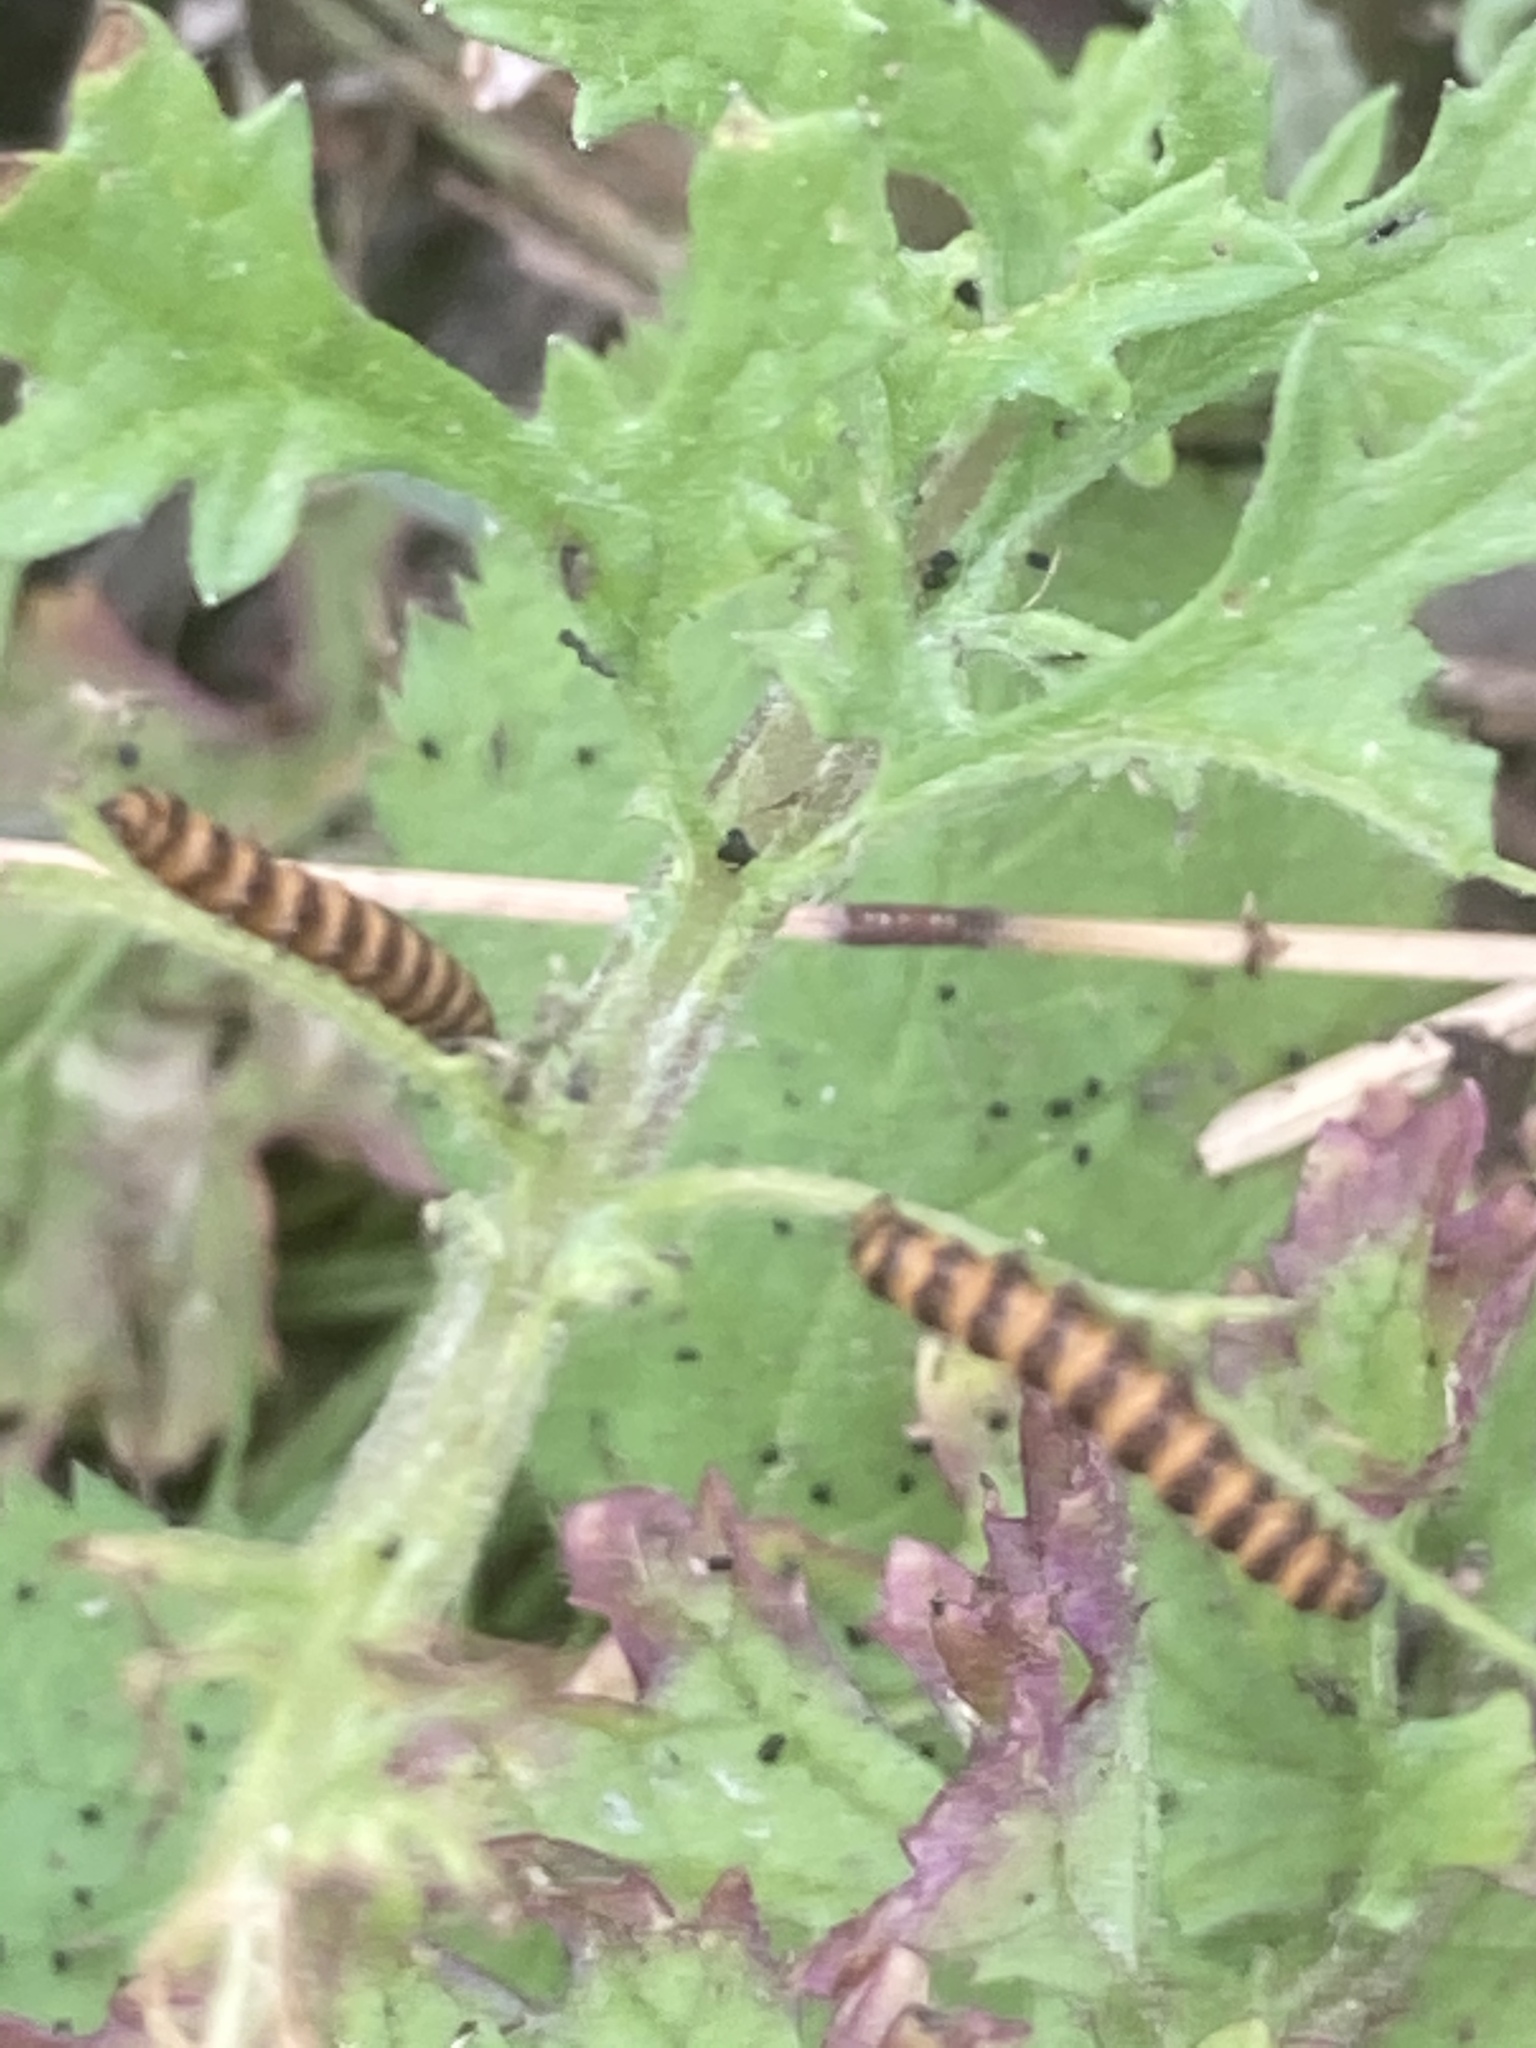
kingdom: Animalia
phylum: Arthropoda
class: Insecta
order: Lepidoptera
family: Erebidae
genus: Tyria
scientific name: Tyria jacobaeae
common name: Cinnabar
